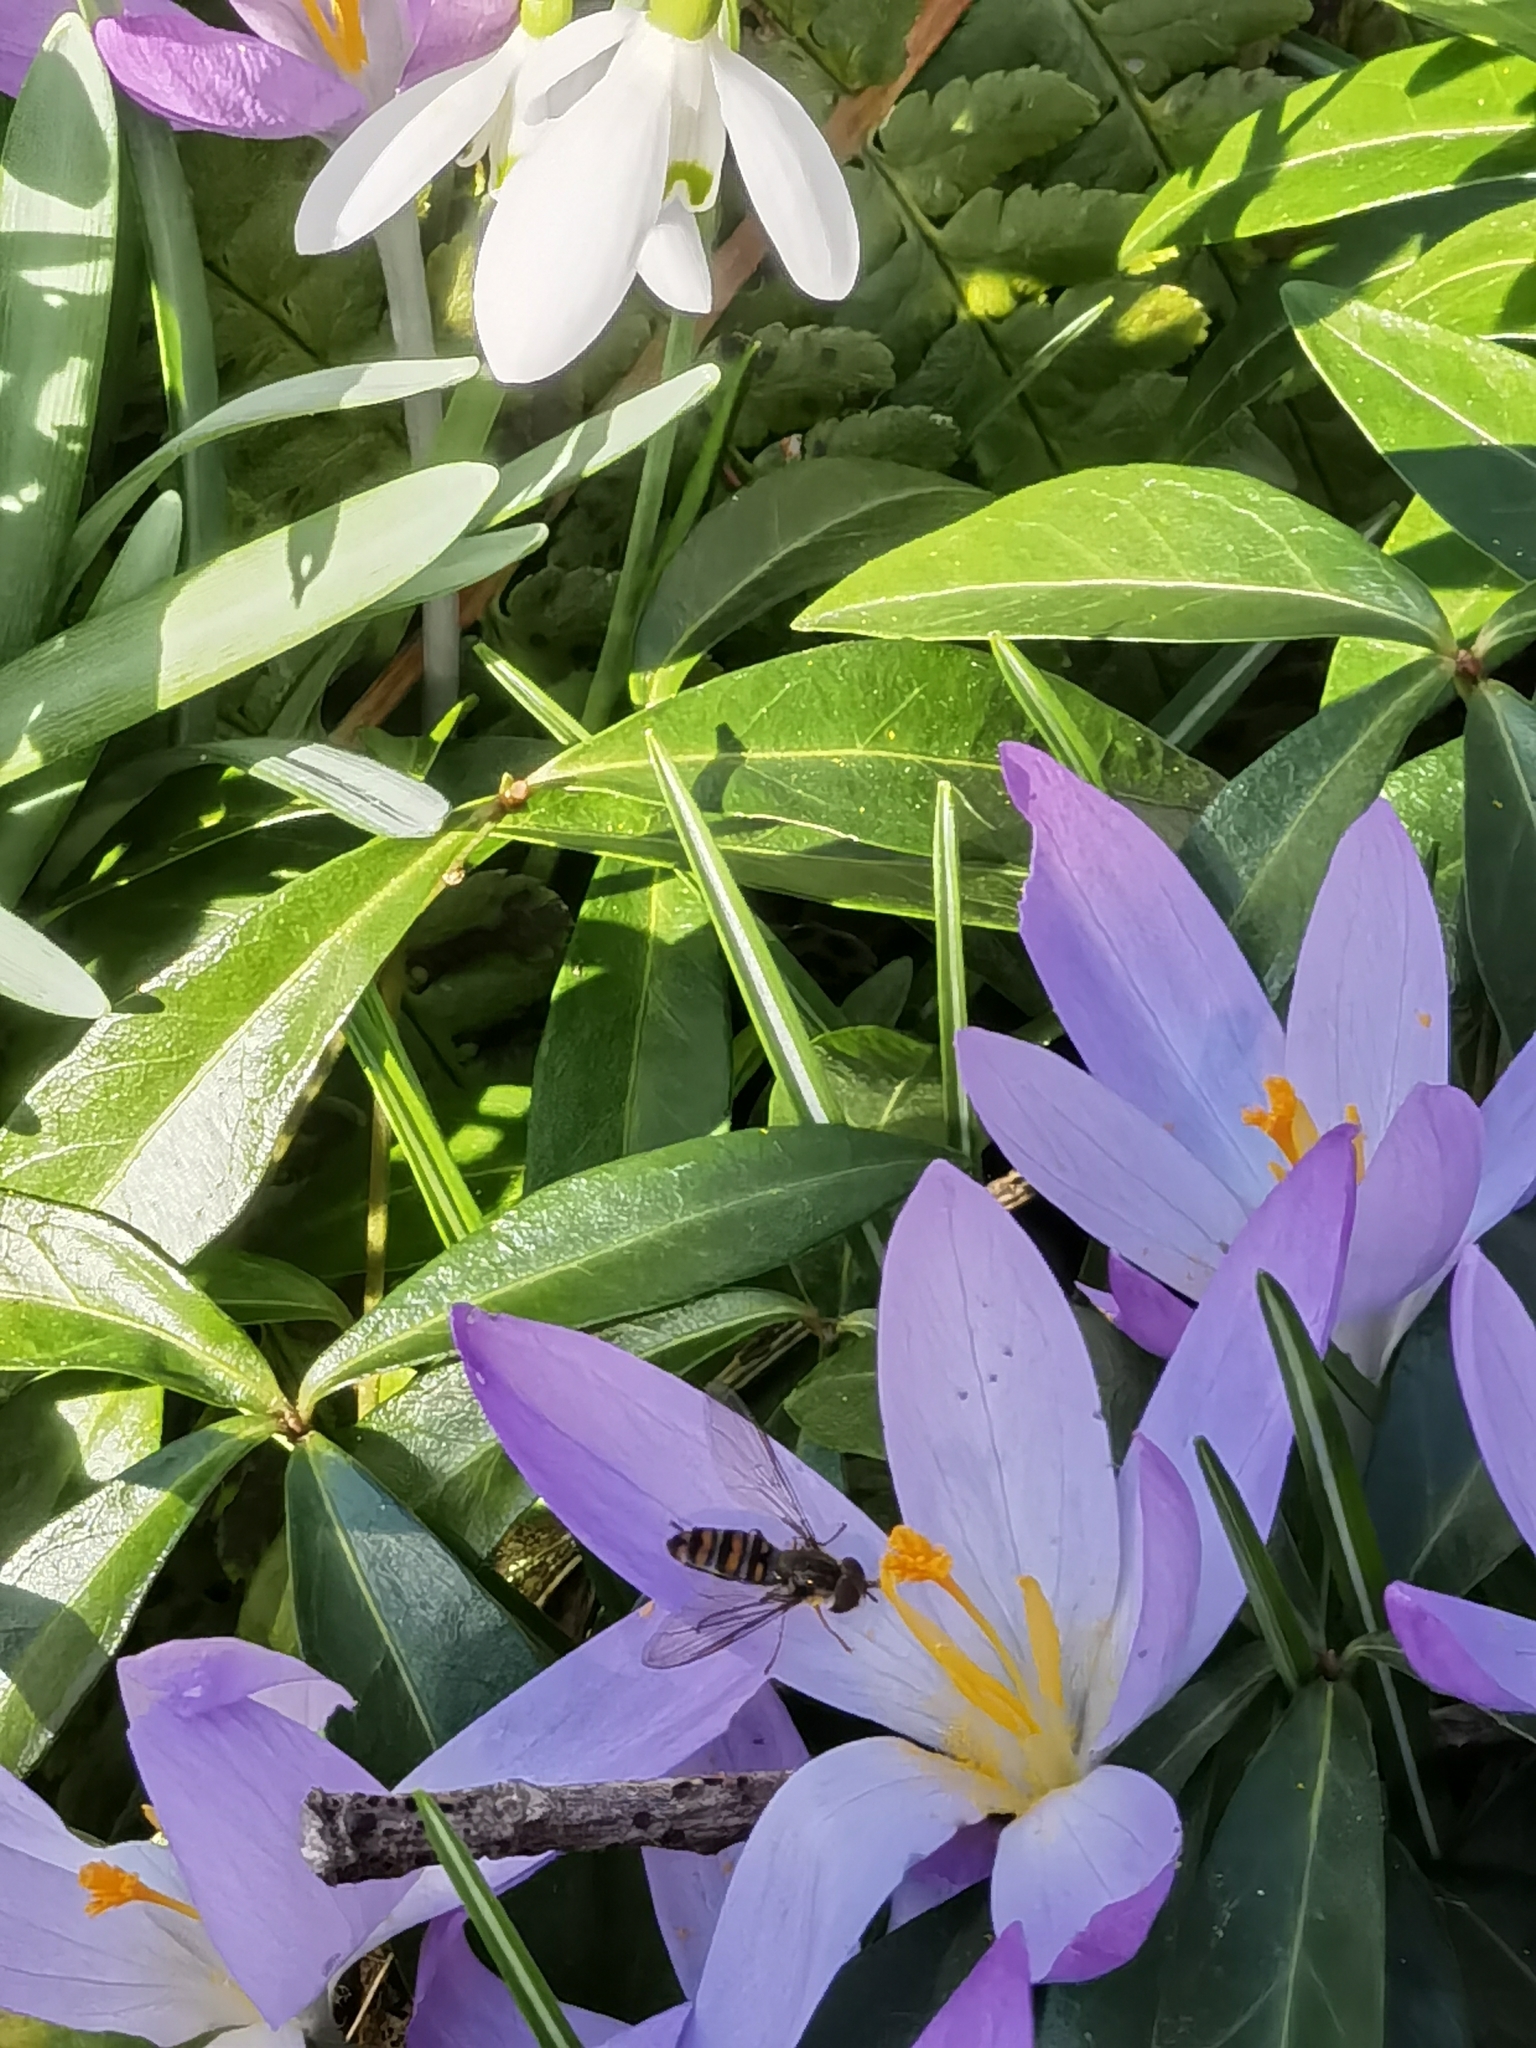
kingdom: Animalia
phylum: Arthropoda
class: Insecta
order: Diptera
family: Syrphidae
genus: Episyrphus
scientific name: Episyrphus balteatus
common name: Marmalade hoverfly
